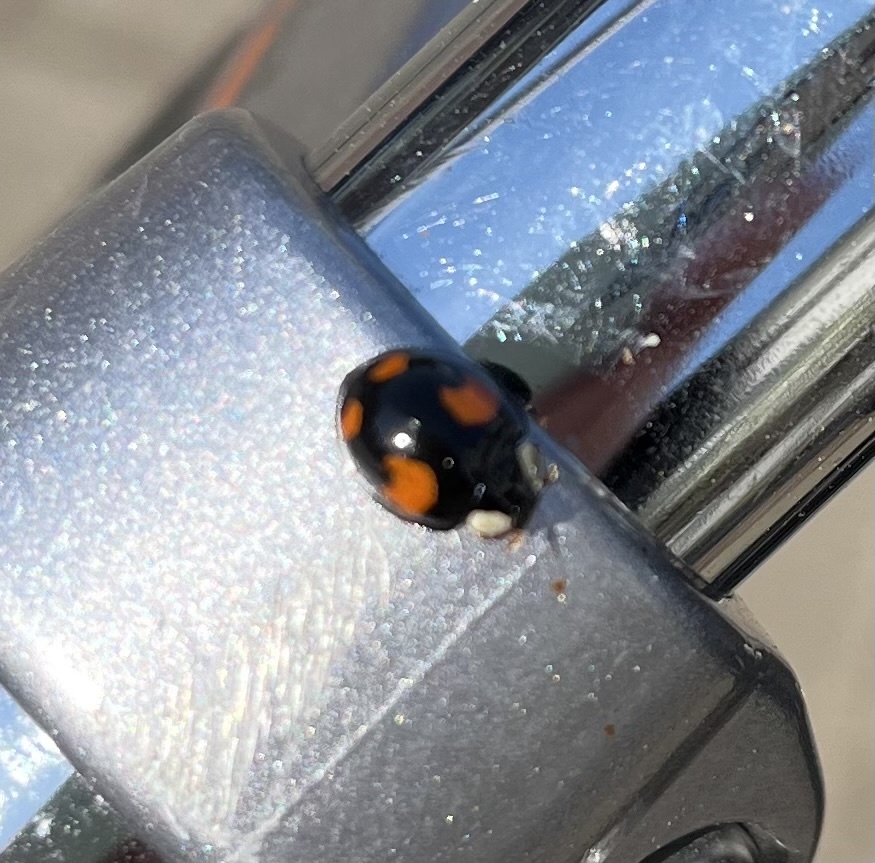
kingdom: Animalia
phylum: Arthropoda
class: Insecta
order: Coleoptera
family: Coccinellidae
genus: Harmonia
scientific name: Harmonia axyridis
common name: Harlequin ladybird
